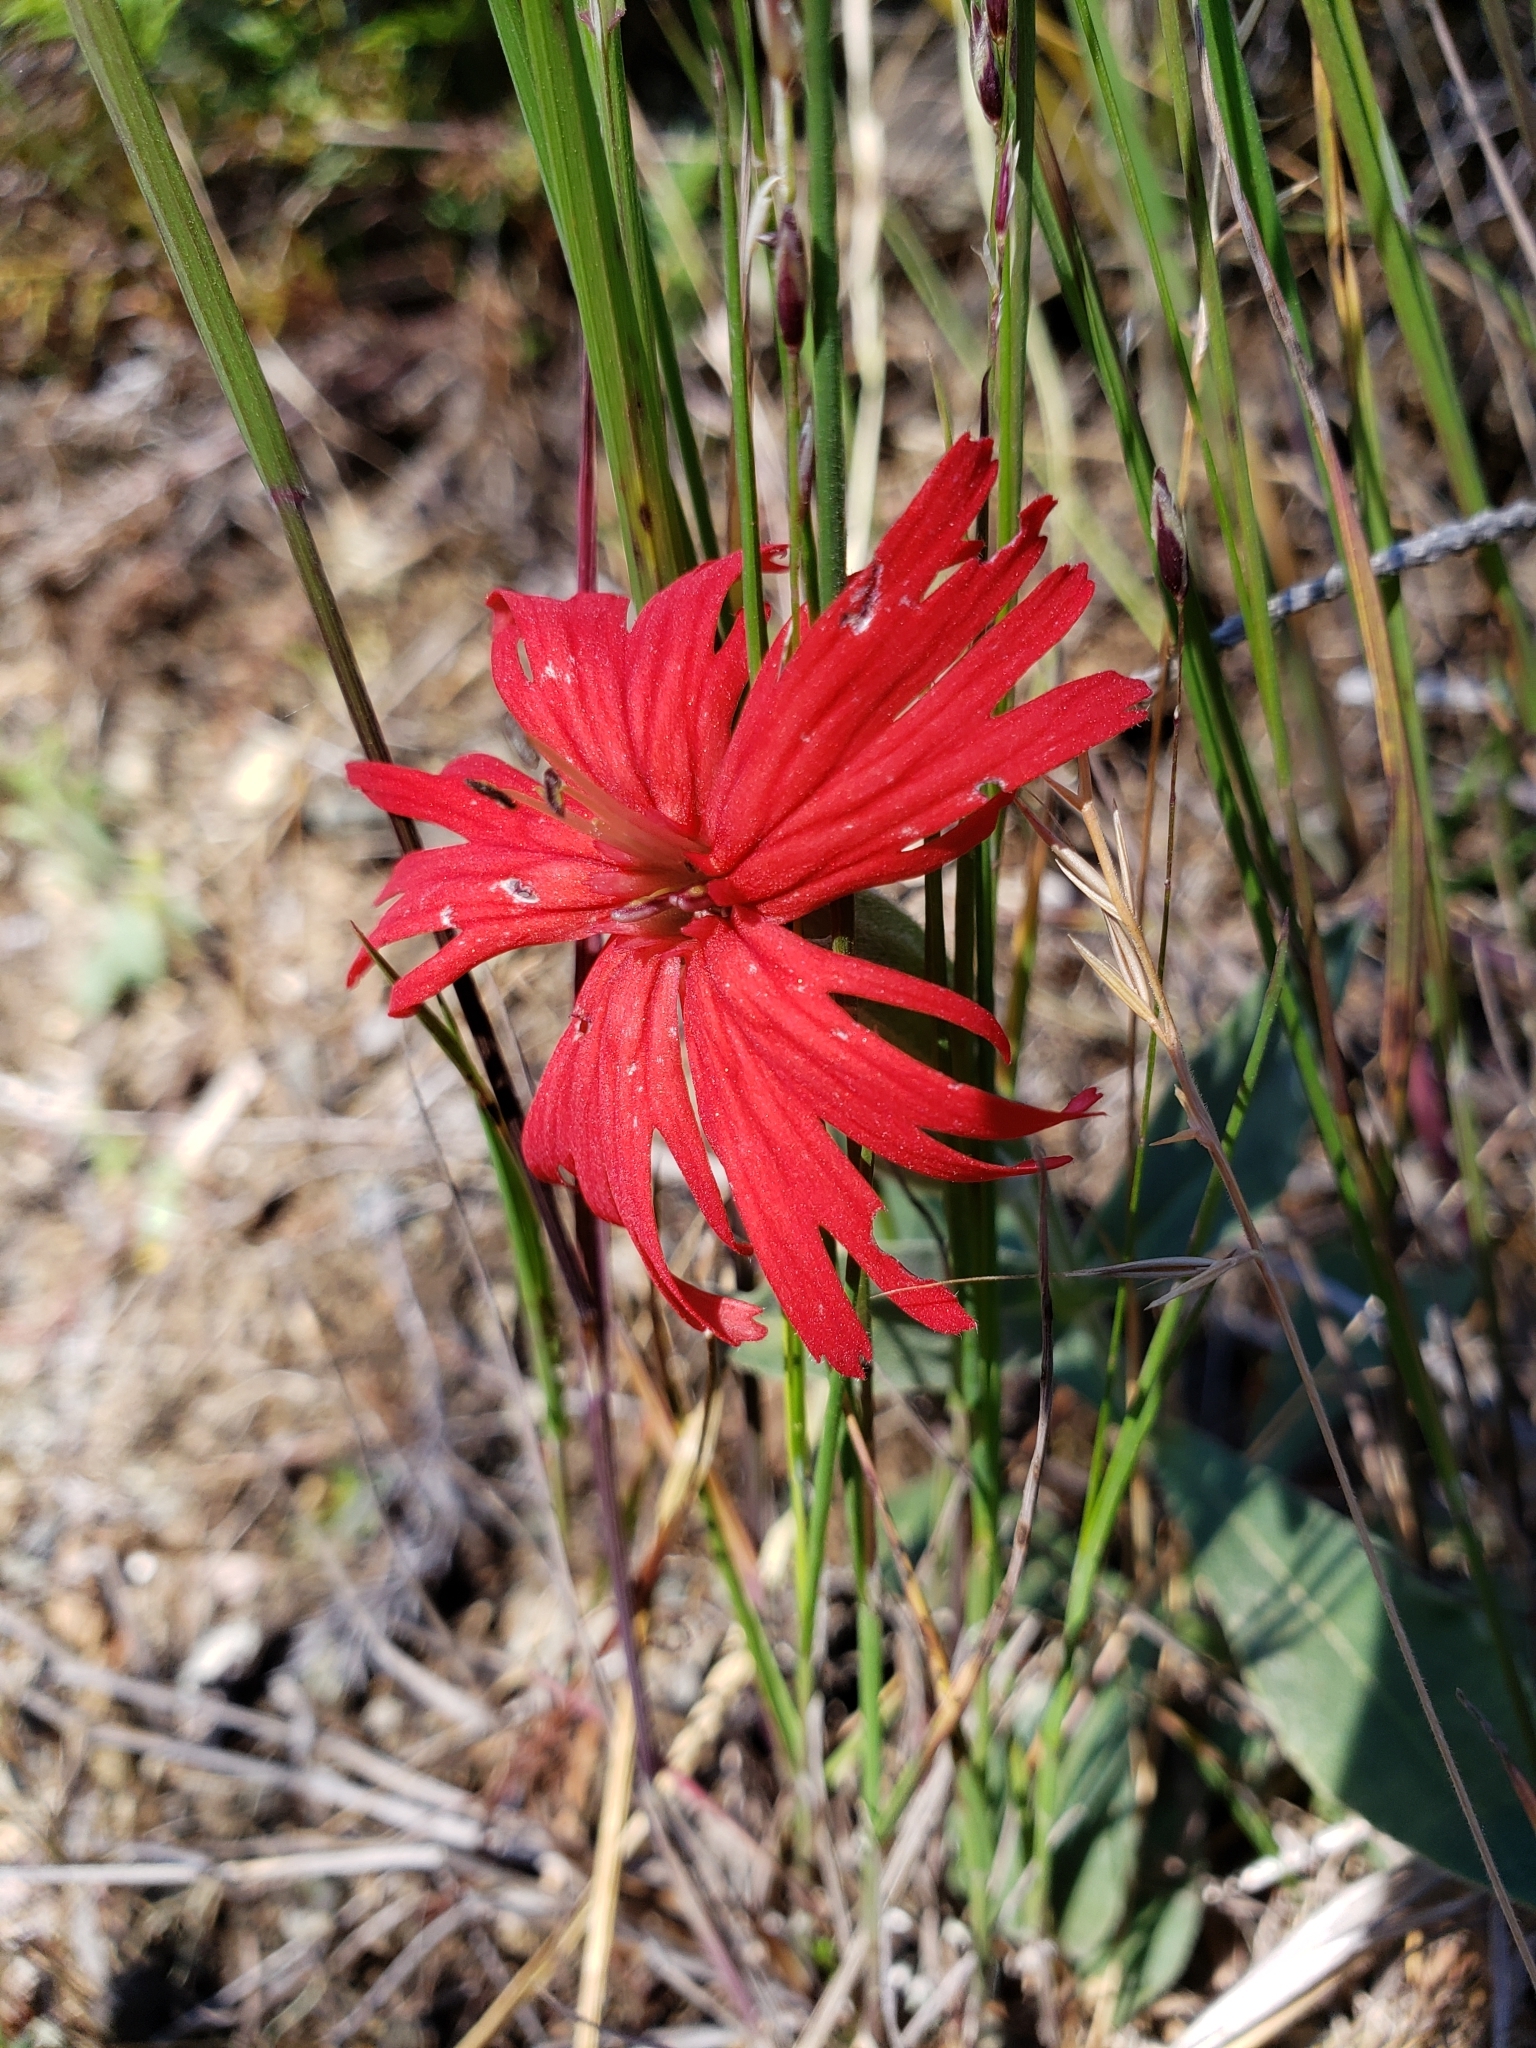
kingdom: Plantae
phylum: Tracheophyta
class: Magnoliopsida
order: Caryophyllales
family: Caryophyllaceae
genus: Silene
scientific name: Silene laciniata
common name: Indian-pink
